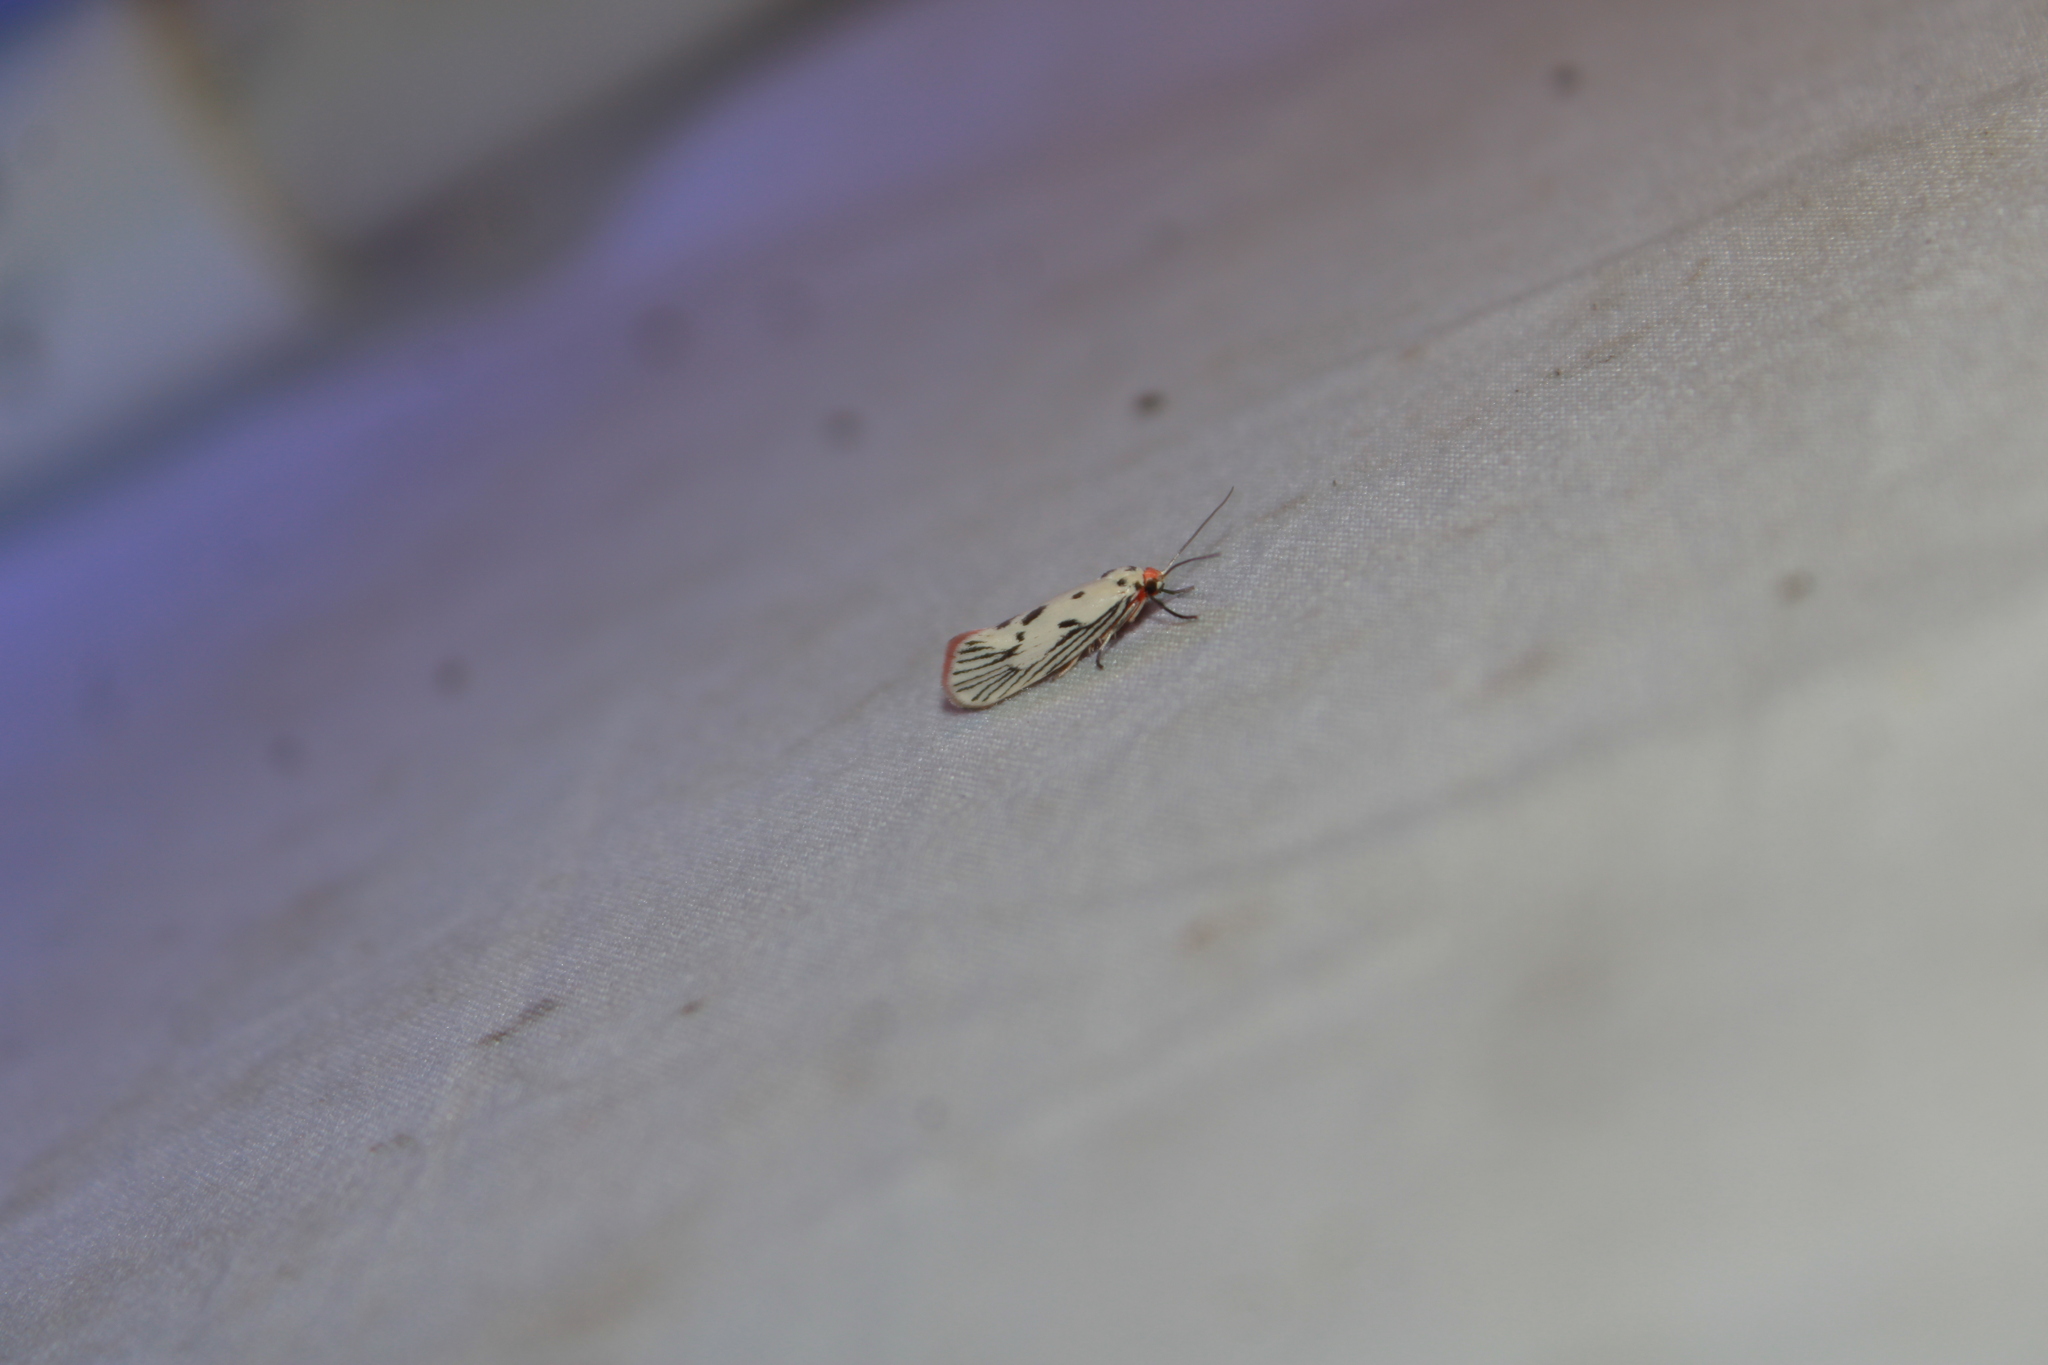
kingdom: Animalia
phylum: Arthropoda
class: Insecta
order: Lepidoptera
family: Lacturidae
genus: Lactura
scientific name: Lactura
